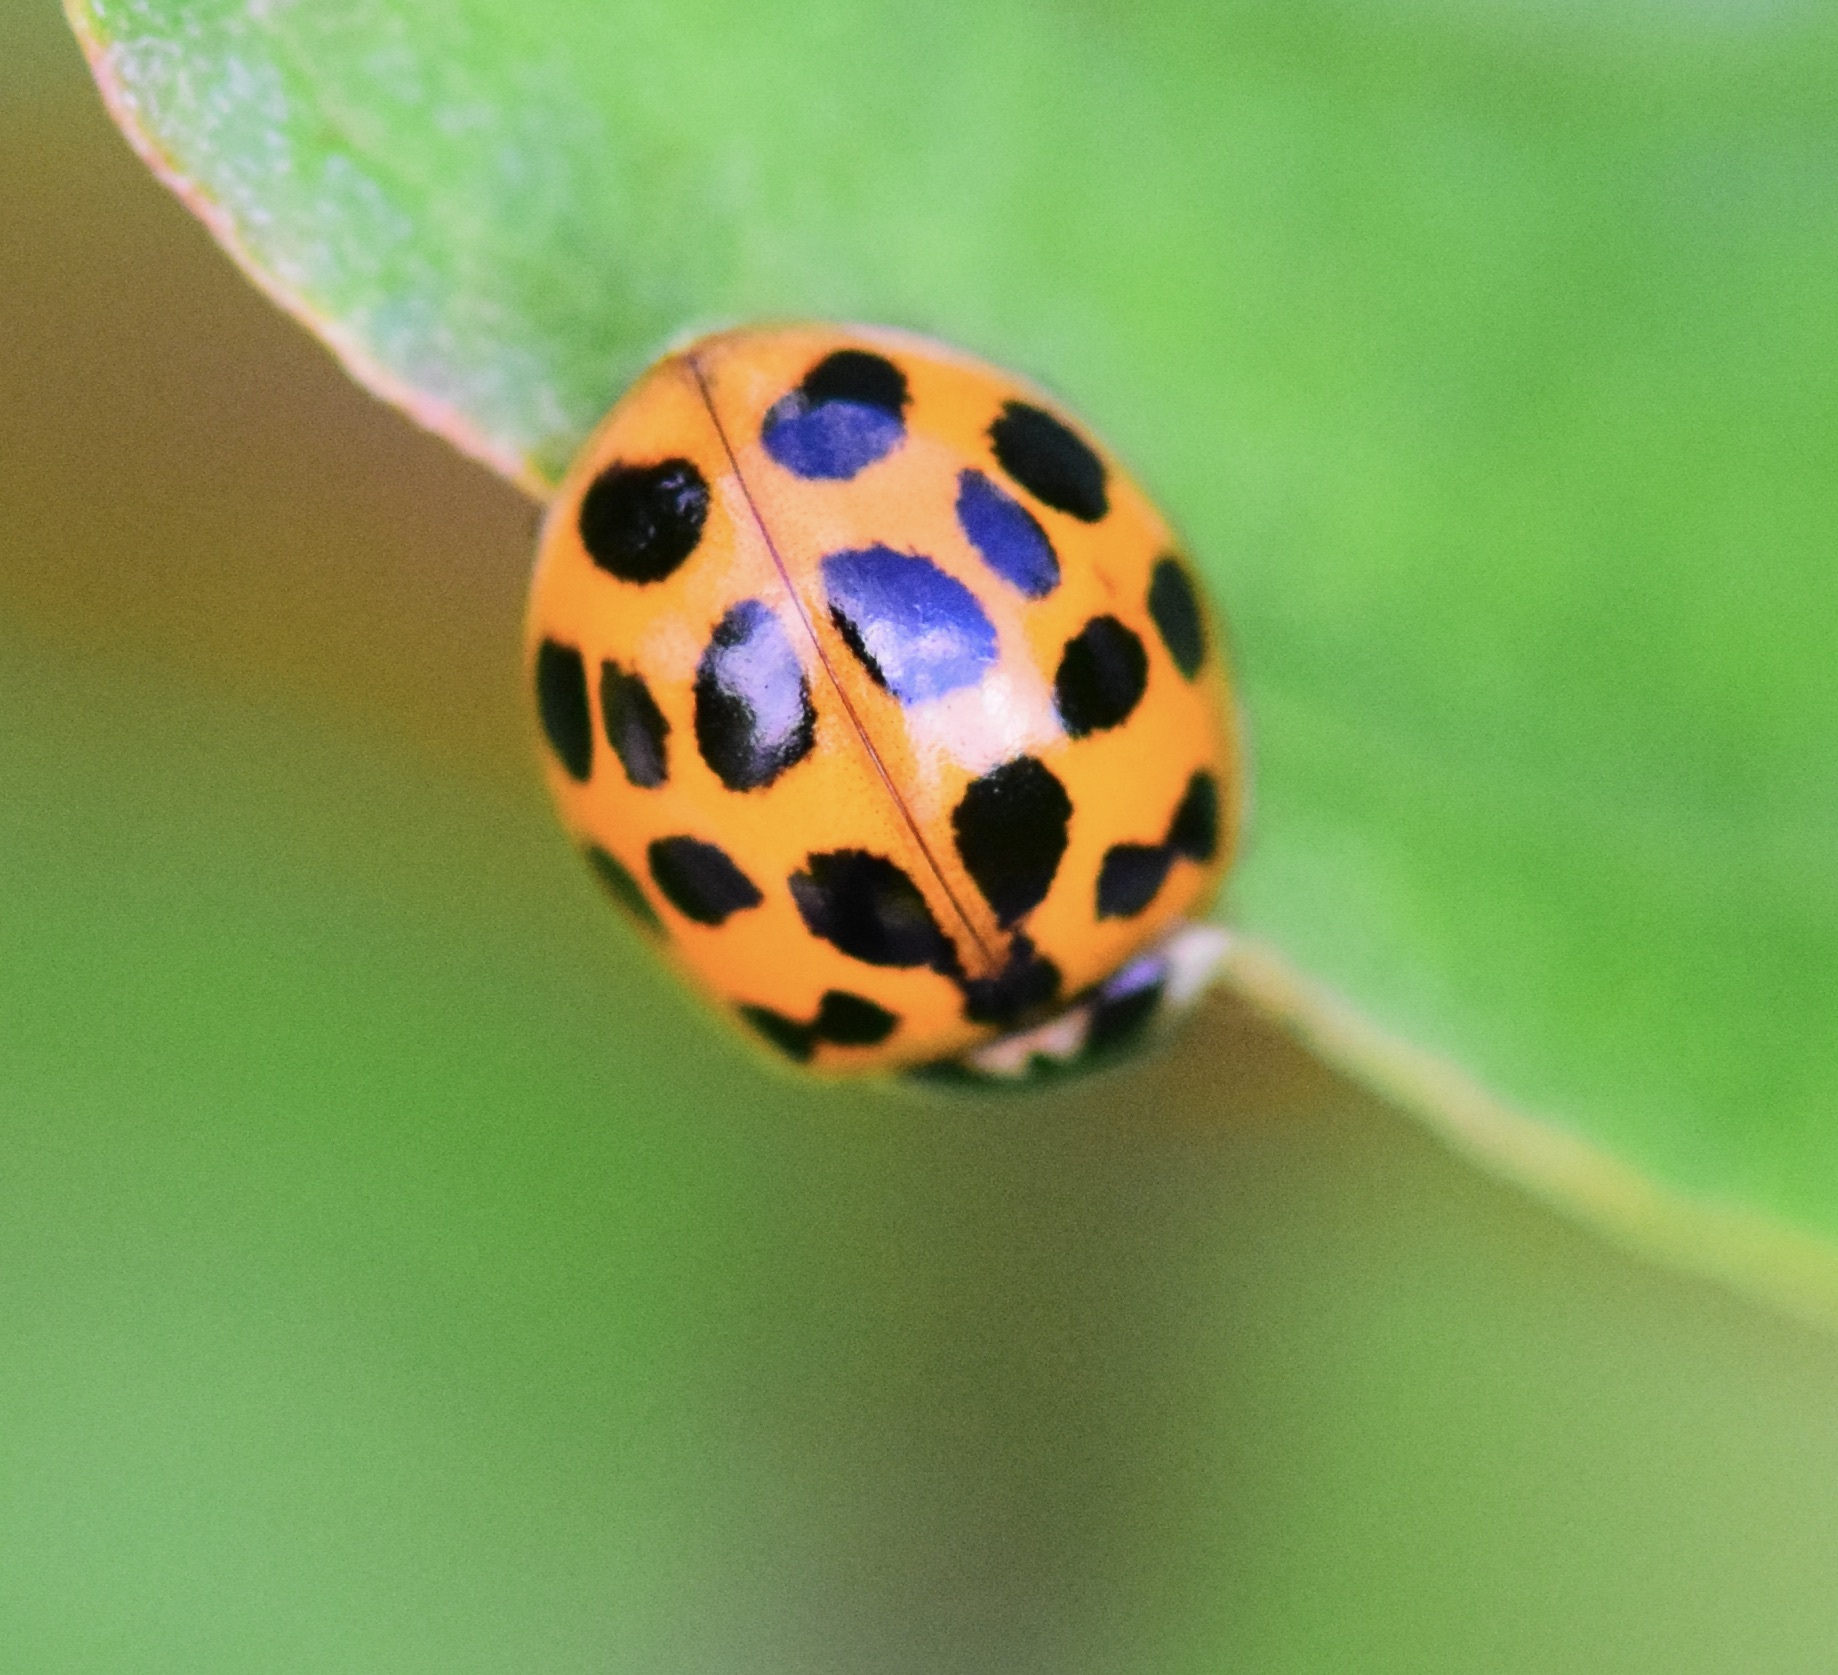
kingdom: Animalia
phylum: Arthropoda
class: Insecta
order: Coleoptera
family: Coccinellidae
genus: Harmonia
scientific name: Harmonia axyridis
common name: Harlequin ladybird
